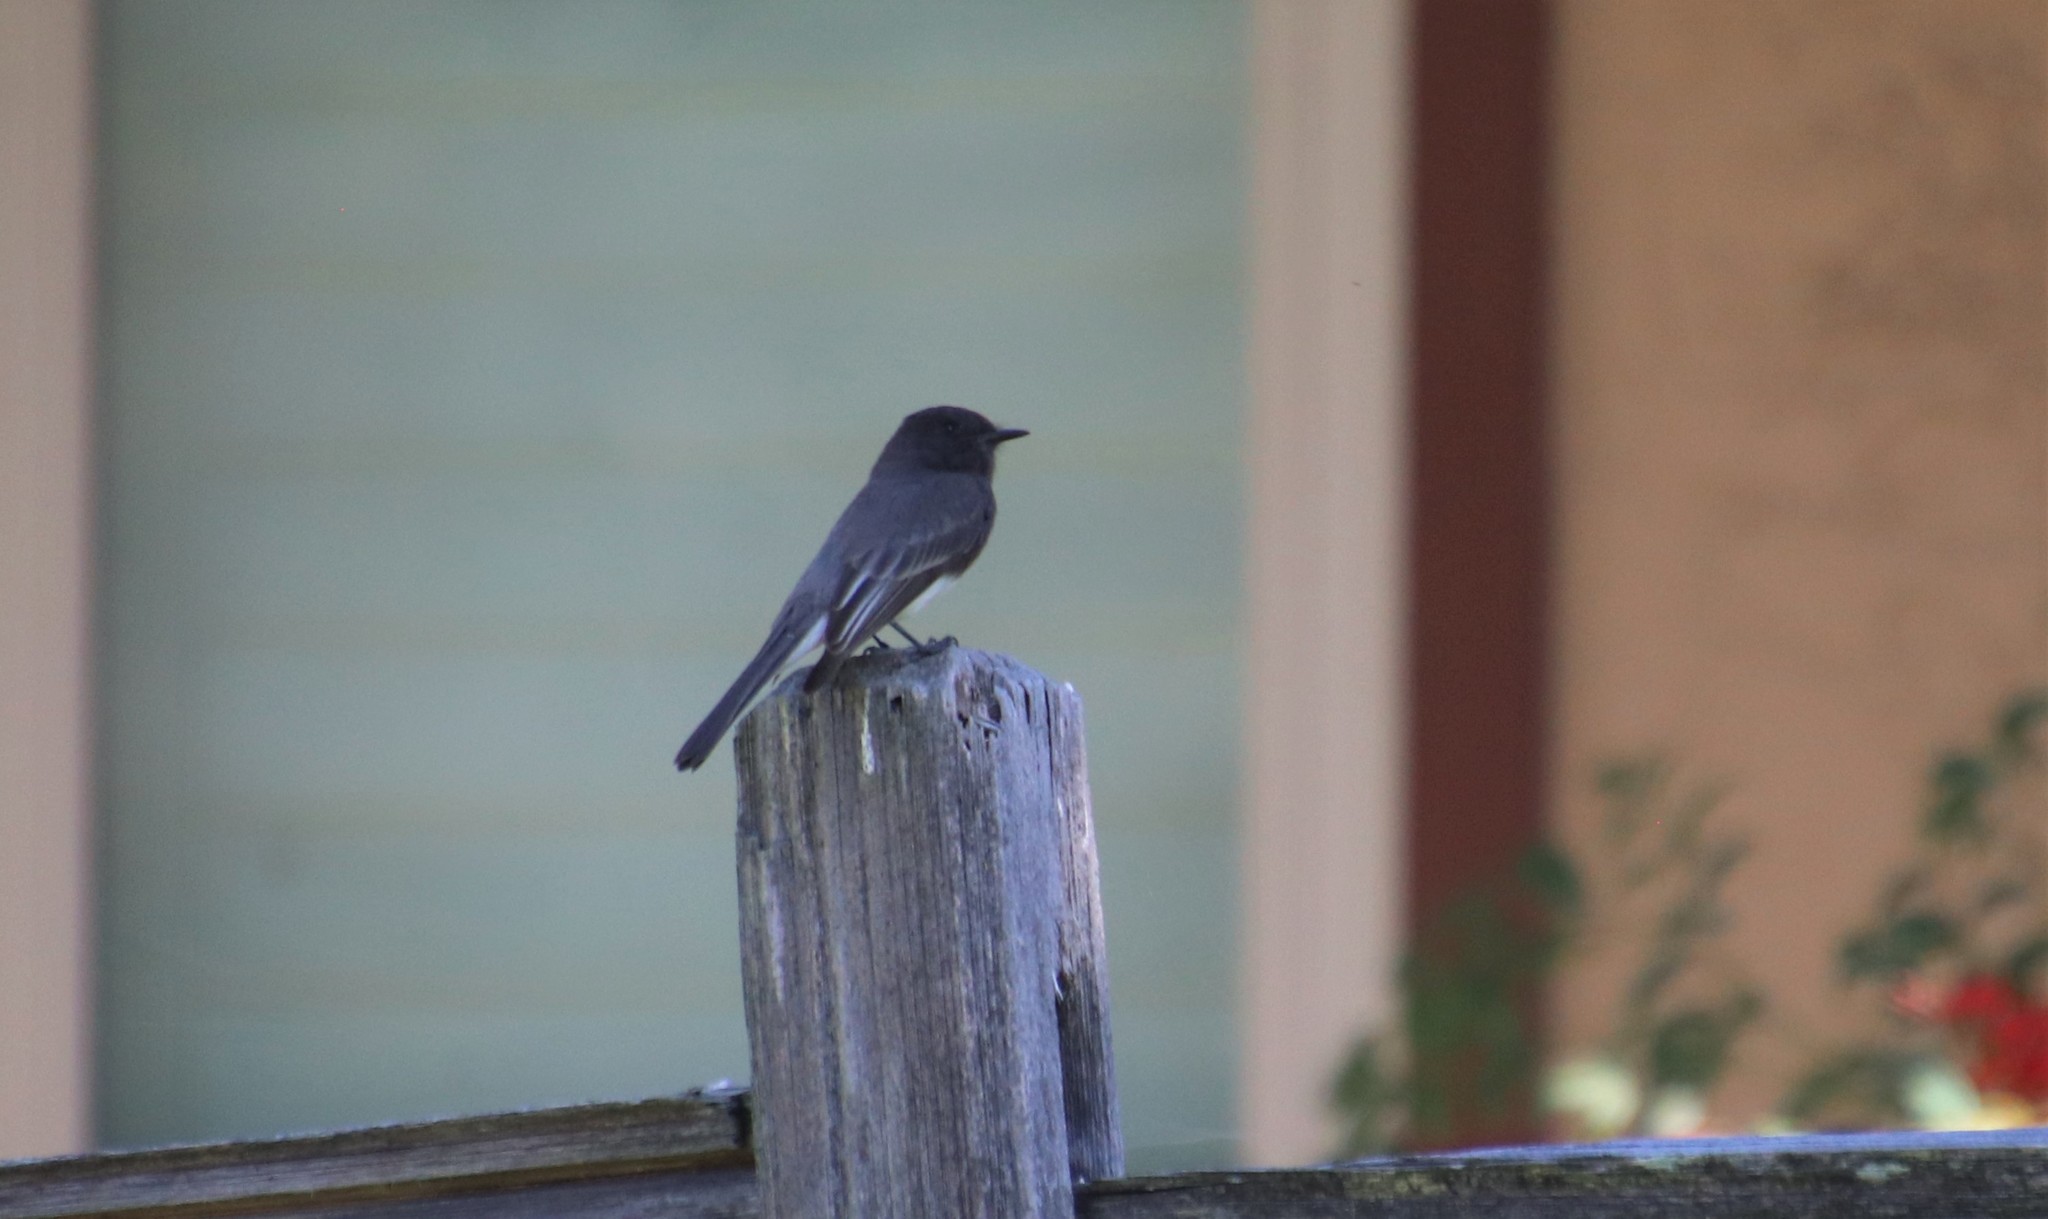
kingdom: Animalia
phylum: Chordata
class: Aves
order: Passeriformes
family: Tyrannidae
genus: Sayornis
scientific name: Sayornis nigricans
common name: Black phoebe
